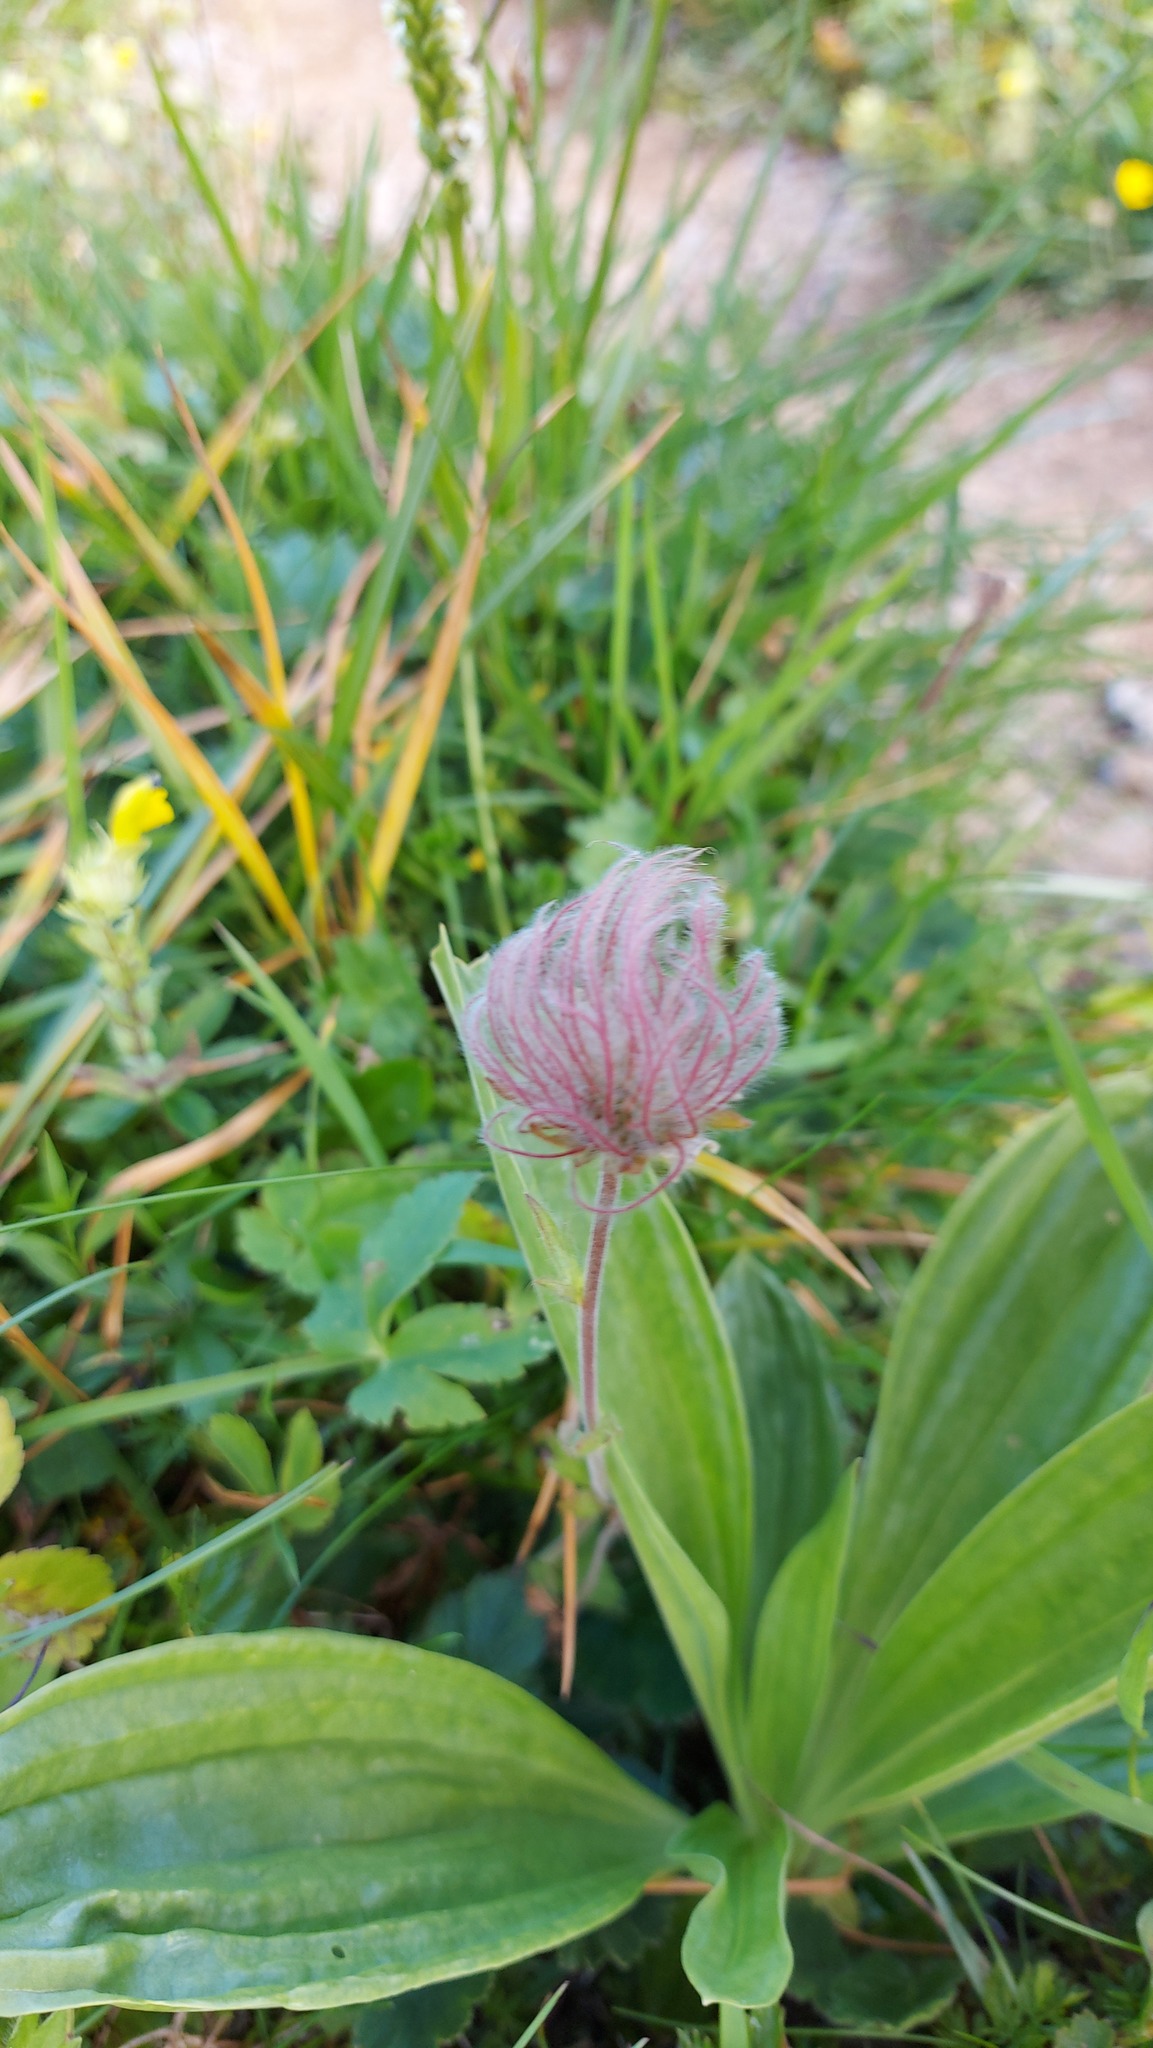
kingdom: Plantae
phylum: Tracheophyta
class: Magnoliopsida
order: Rosales
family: Rosaceae
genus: Geum
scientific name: Geum montanum
